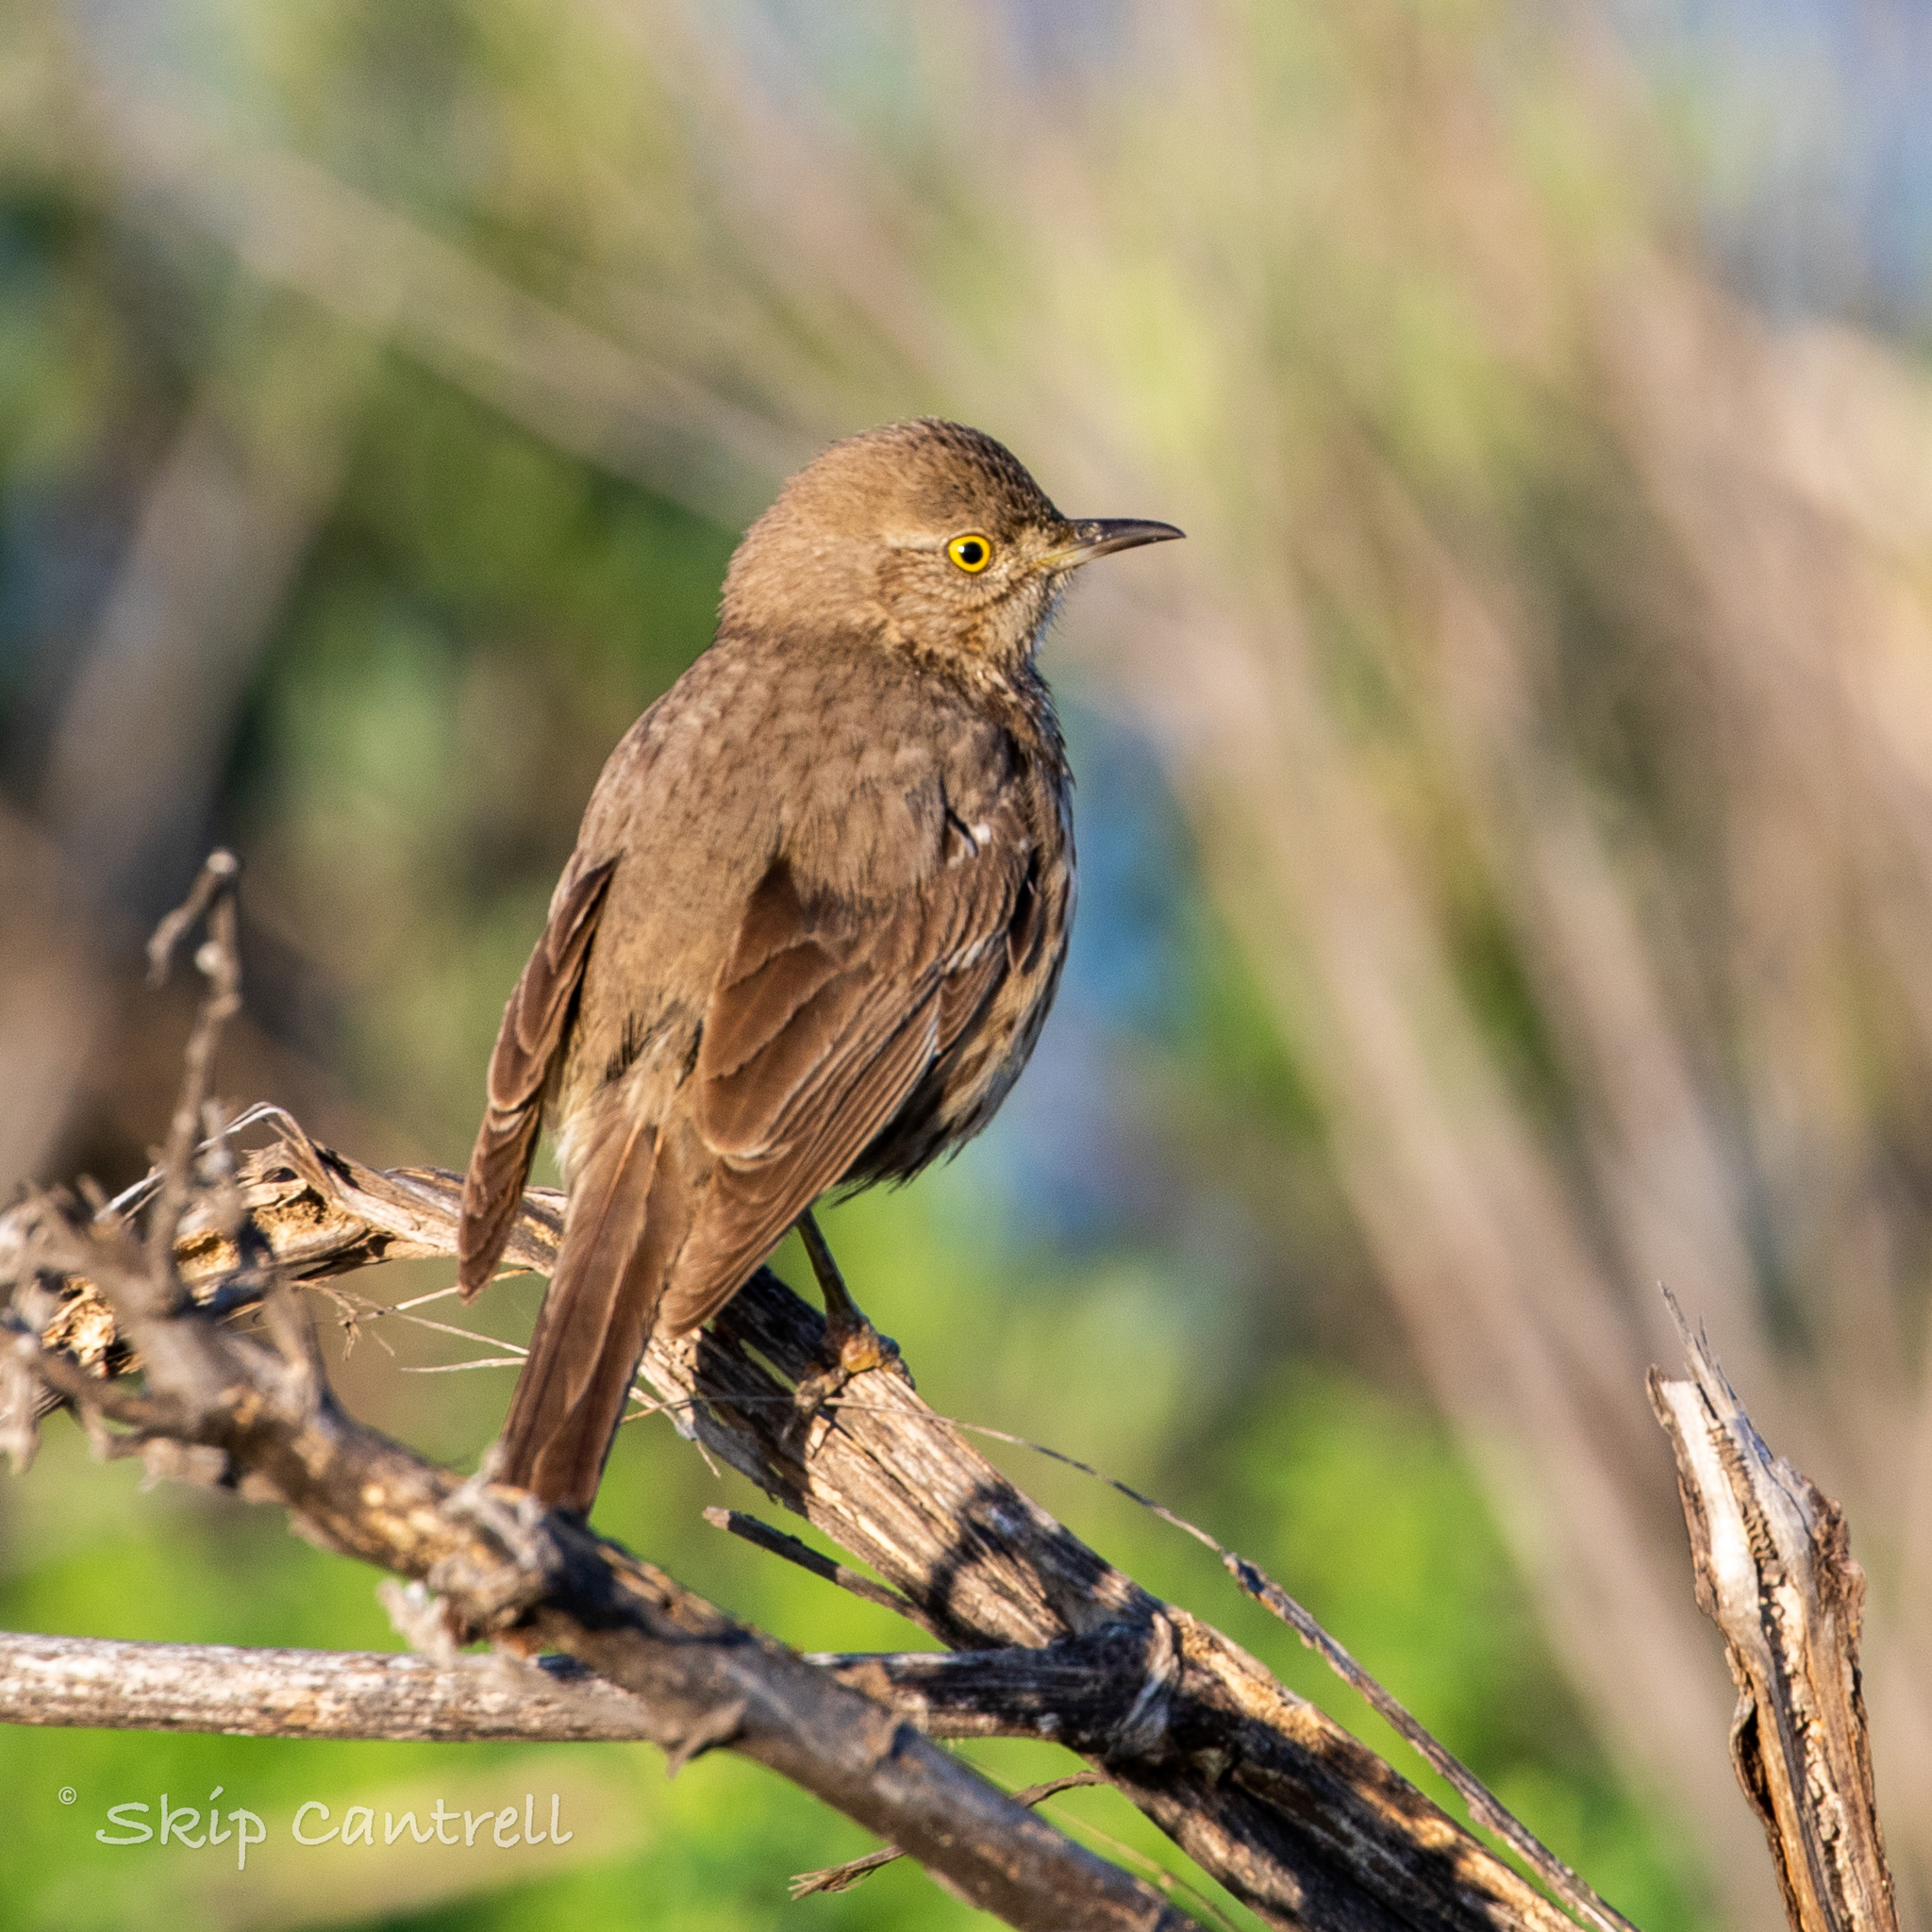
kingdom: Animalia
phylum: Chordata
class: Aves
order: Passeriformes
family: Mimidae
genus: Oreoscoptes
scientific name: Oreoscoptes montanus
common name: Sage thrasher
